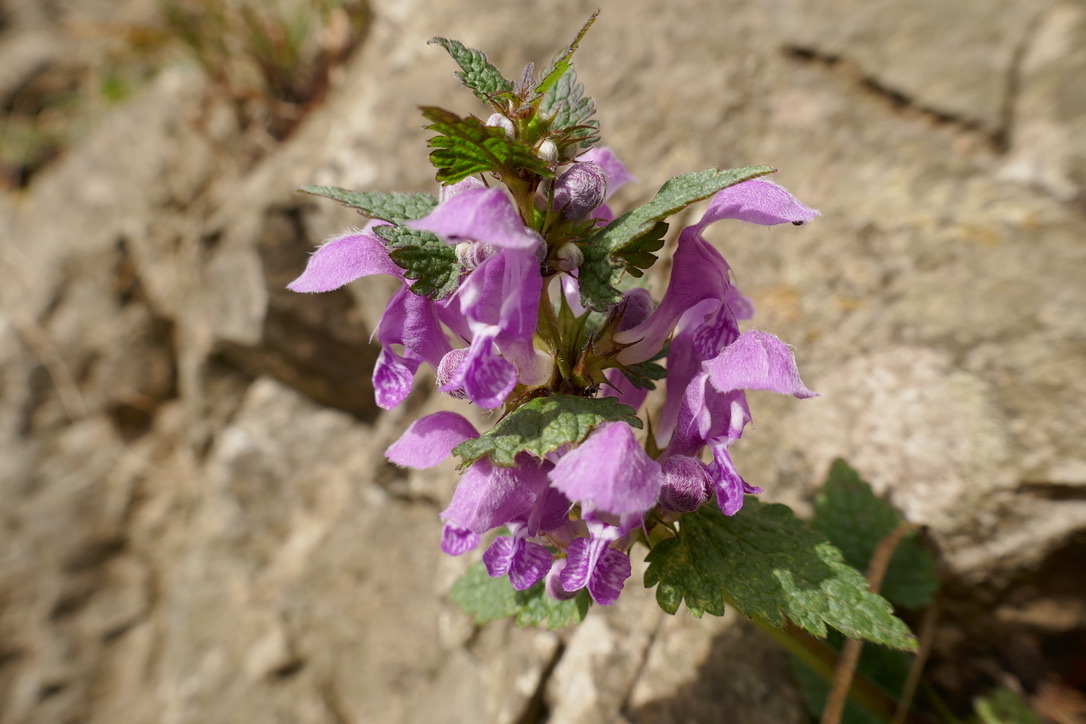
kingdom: Plantae
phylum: Tracheophyta
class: Magnoliopsida
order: Lamiales
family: Lamiaceae
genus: Lamium
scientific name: Lamium maculatum
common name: Spotted dead-nettle
